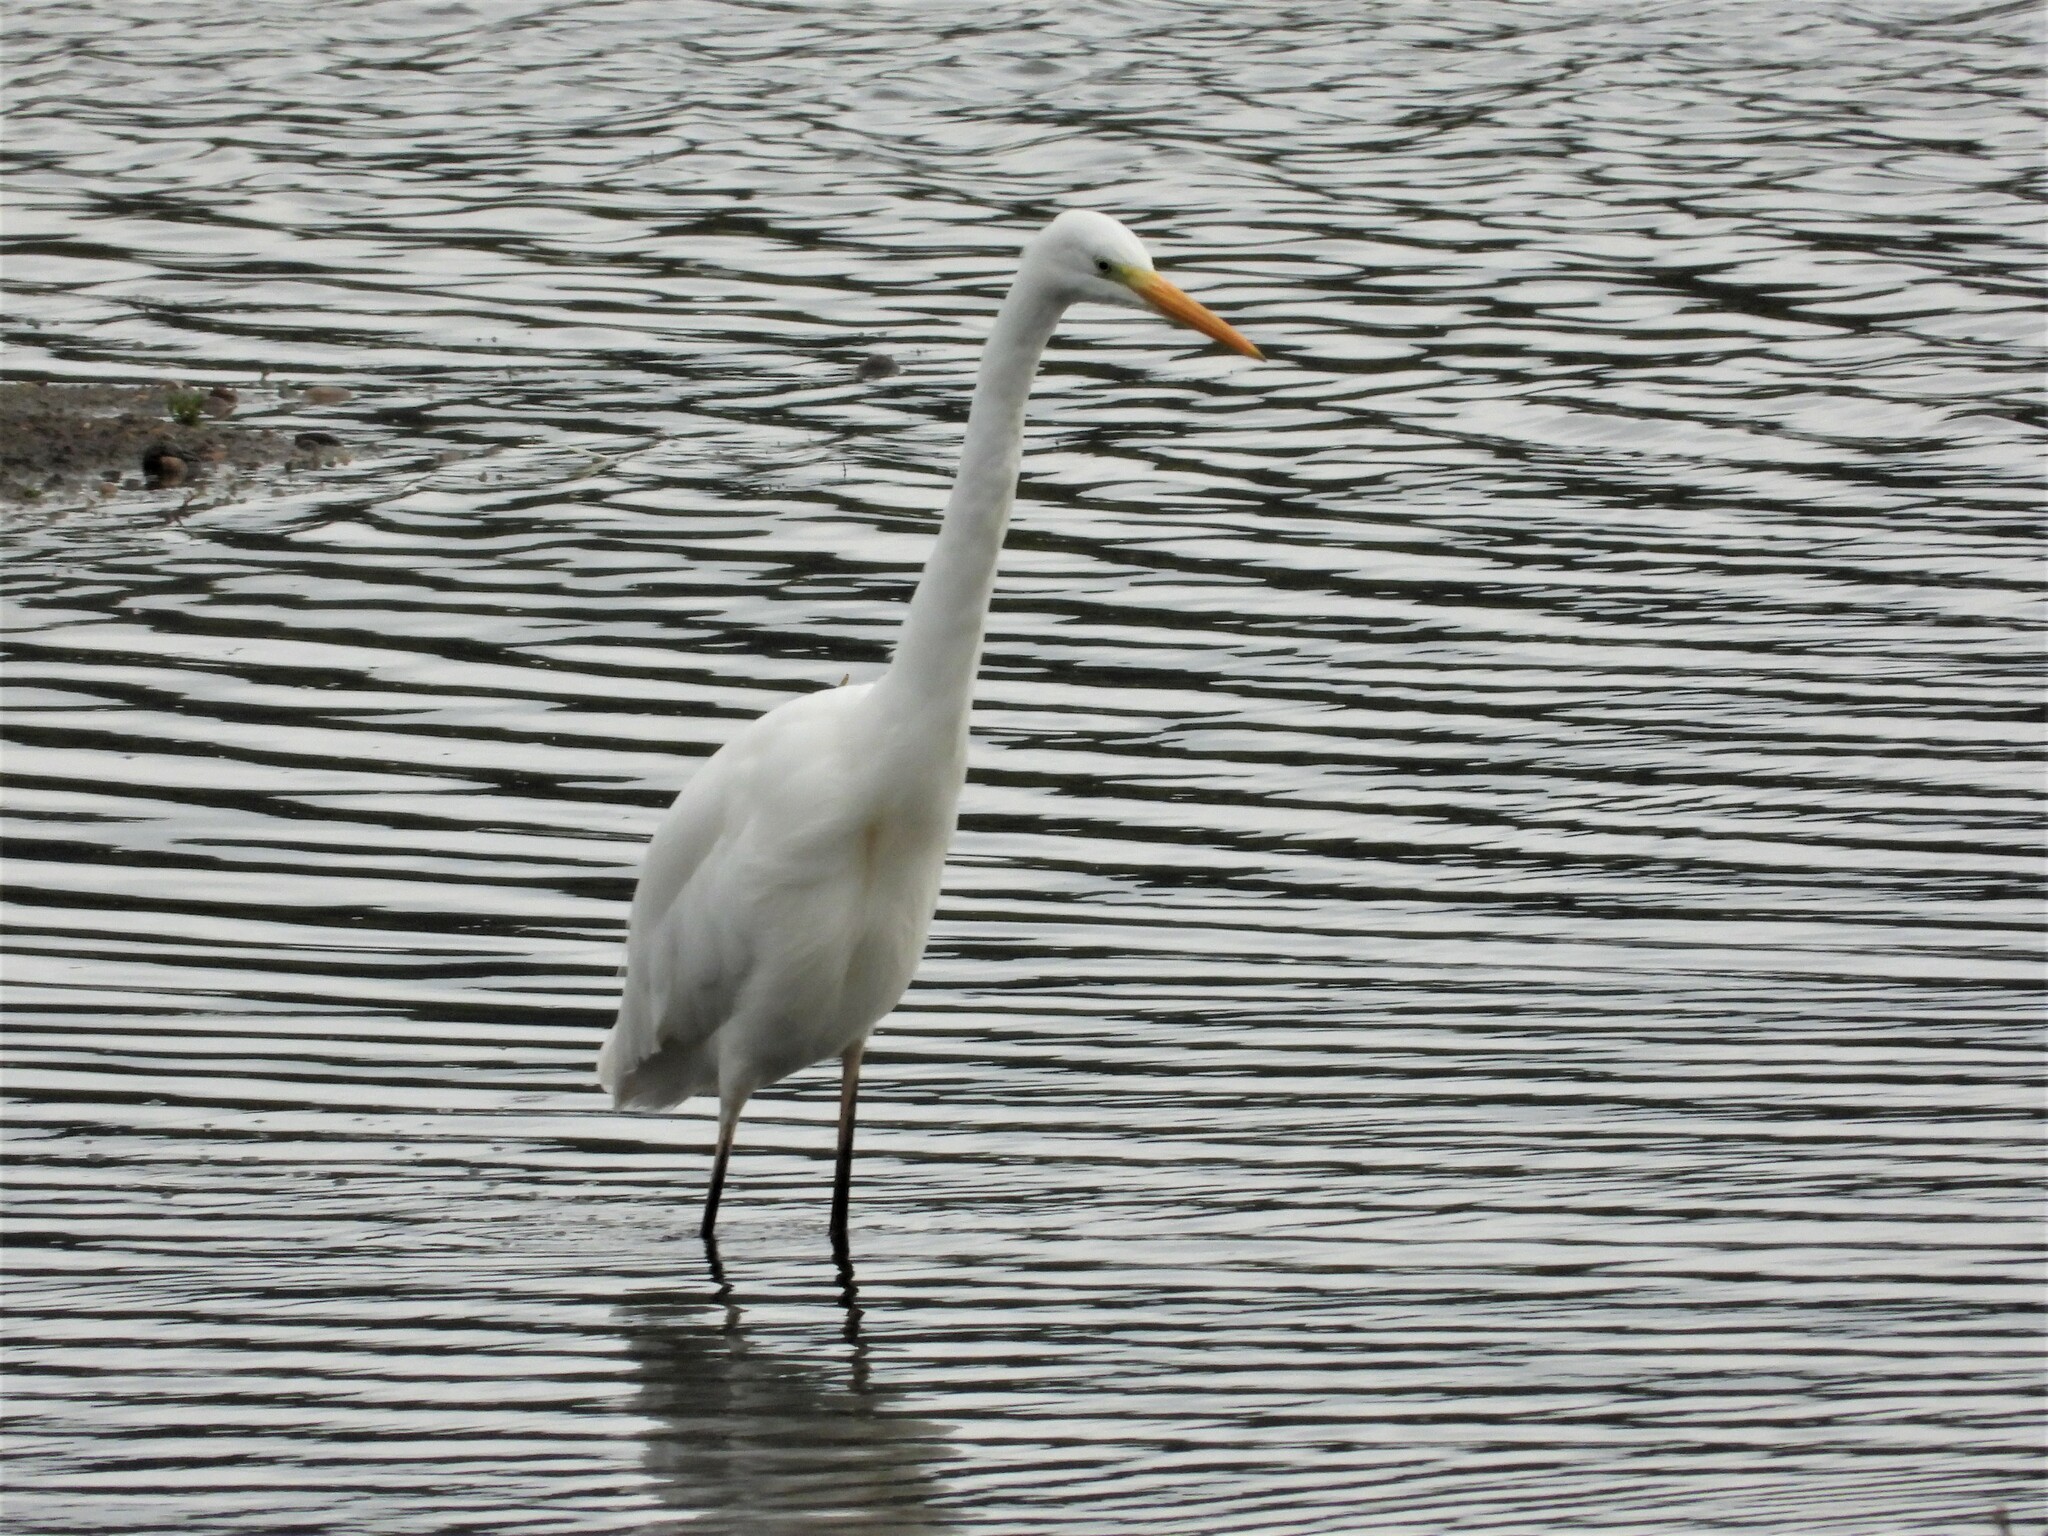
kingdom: Animalia
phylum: Chordata
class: Aves
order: Pelecaniformes
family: Ardeidae
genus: Ardea
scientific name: Ardea alba
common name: Great egret
